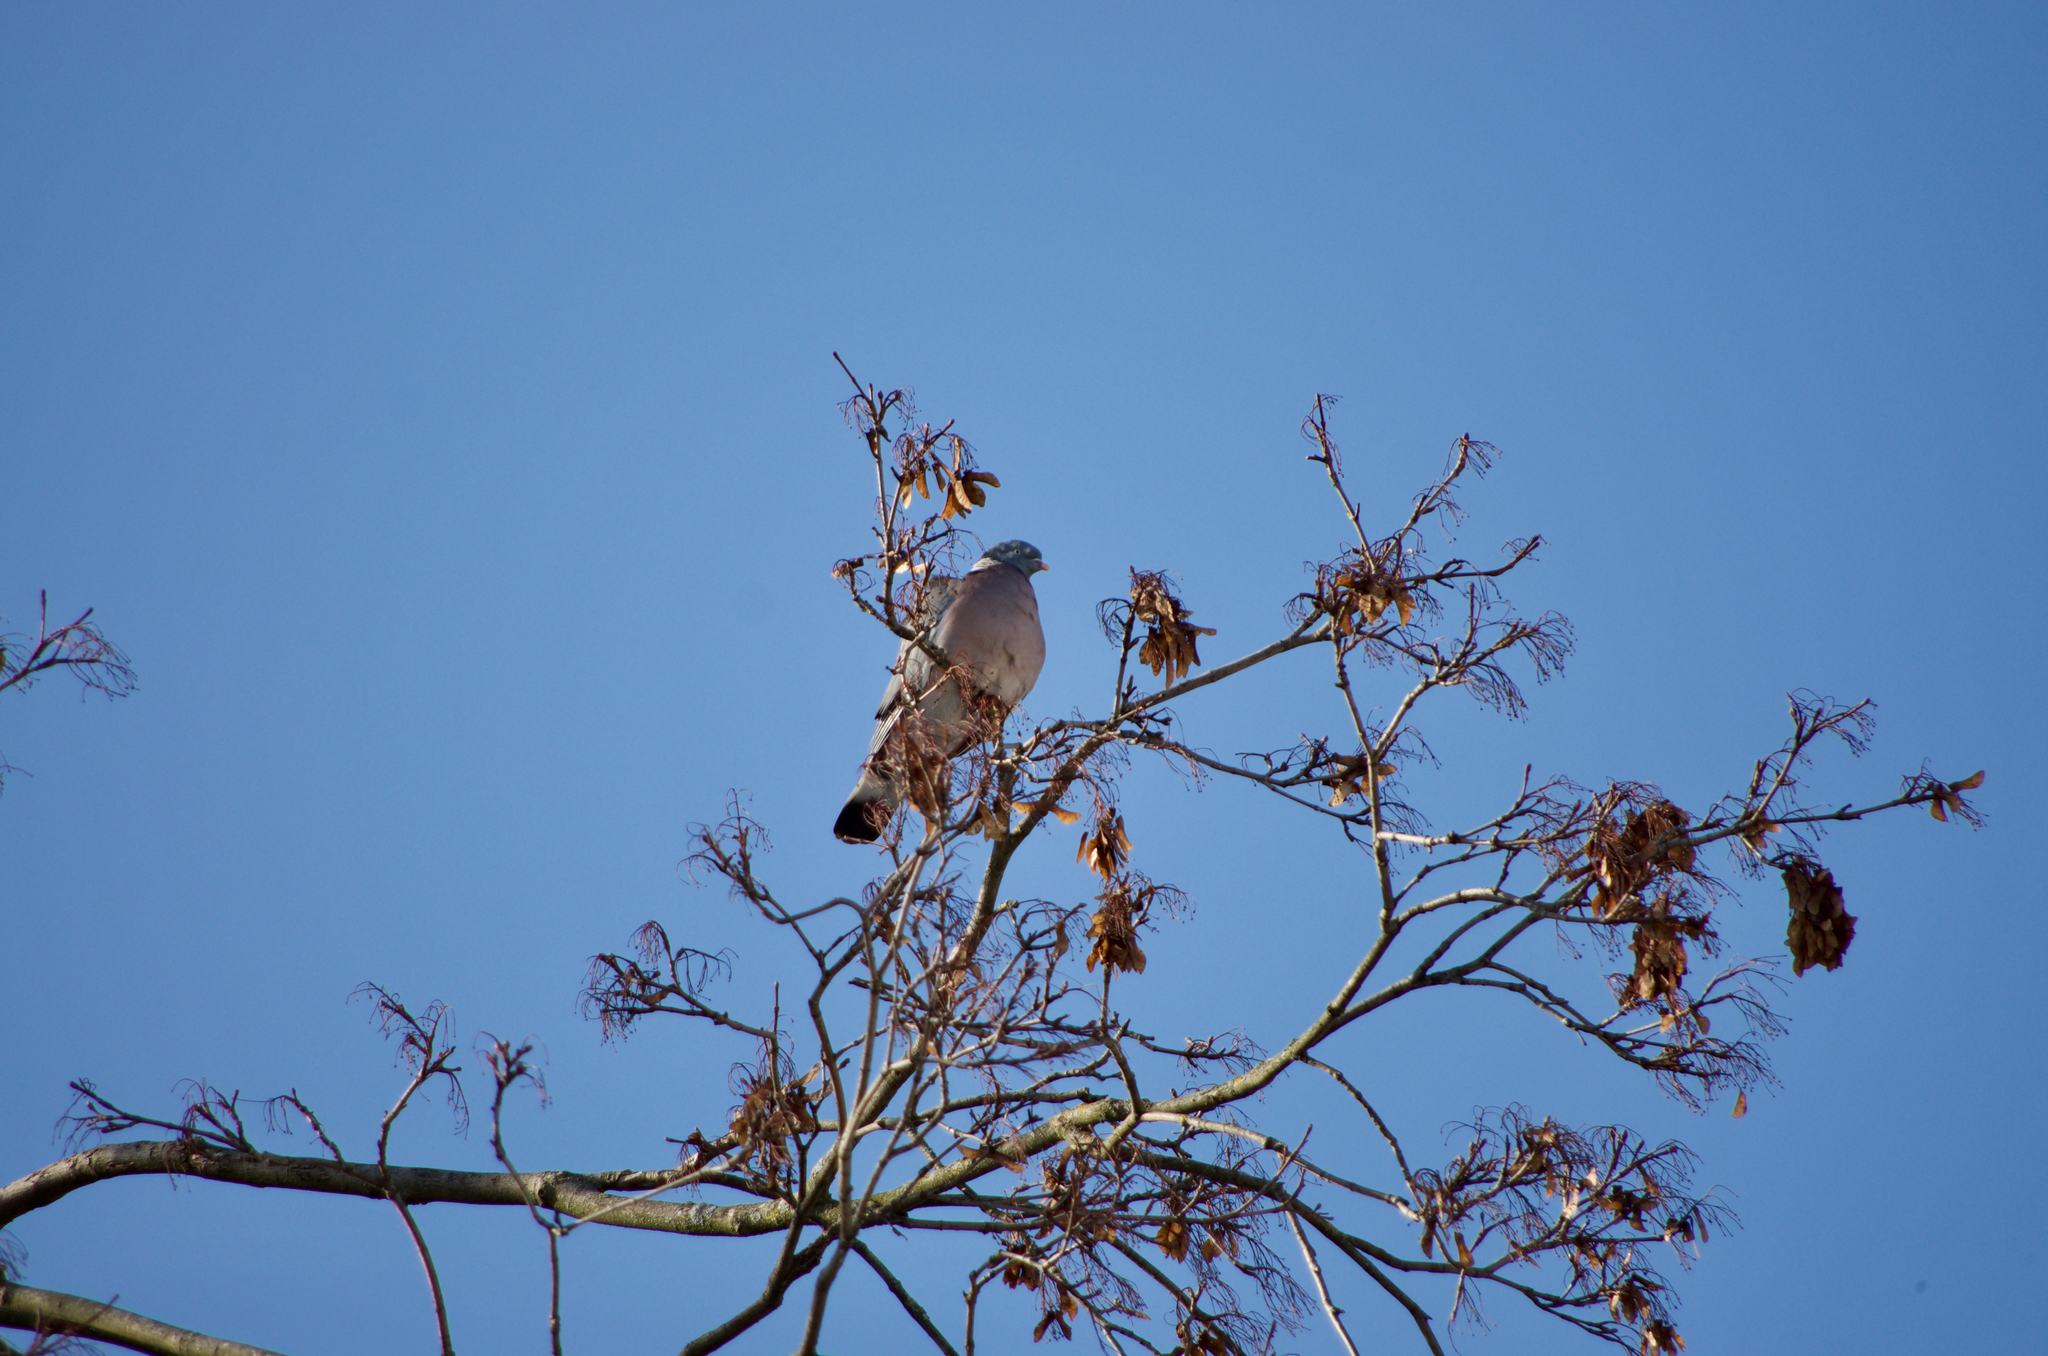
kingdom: Animalia
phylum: Chordata
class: Aves
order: Columbiformes
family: Columbidae
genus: Columba
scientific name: Columba palumbus
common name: Common wood pigeon
